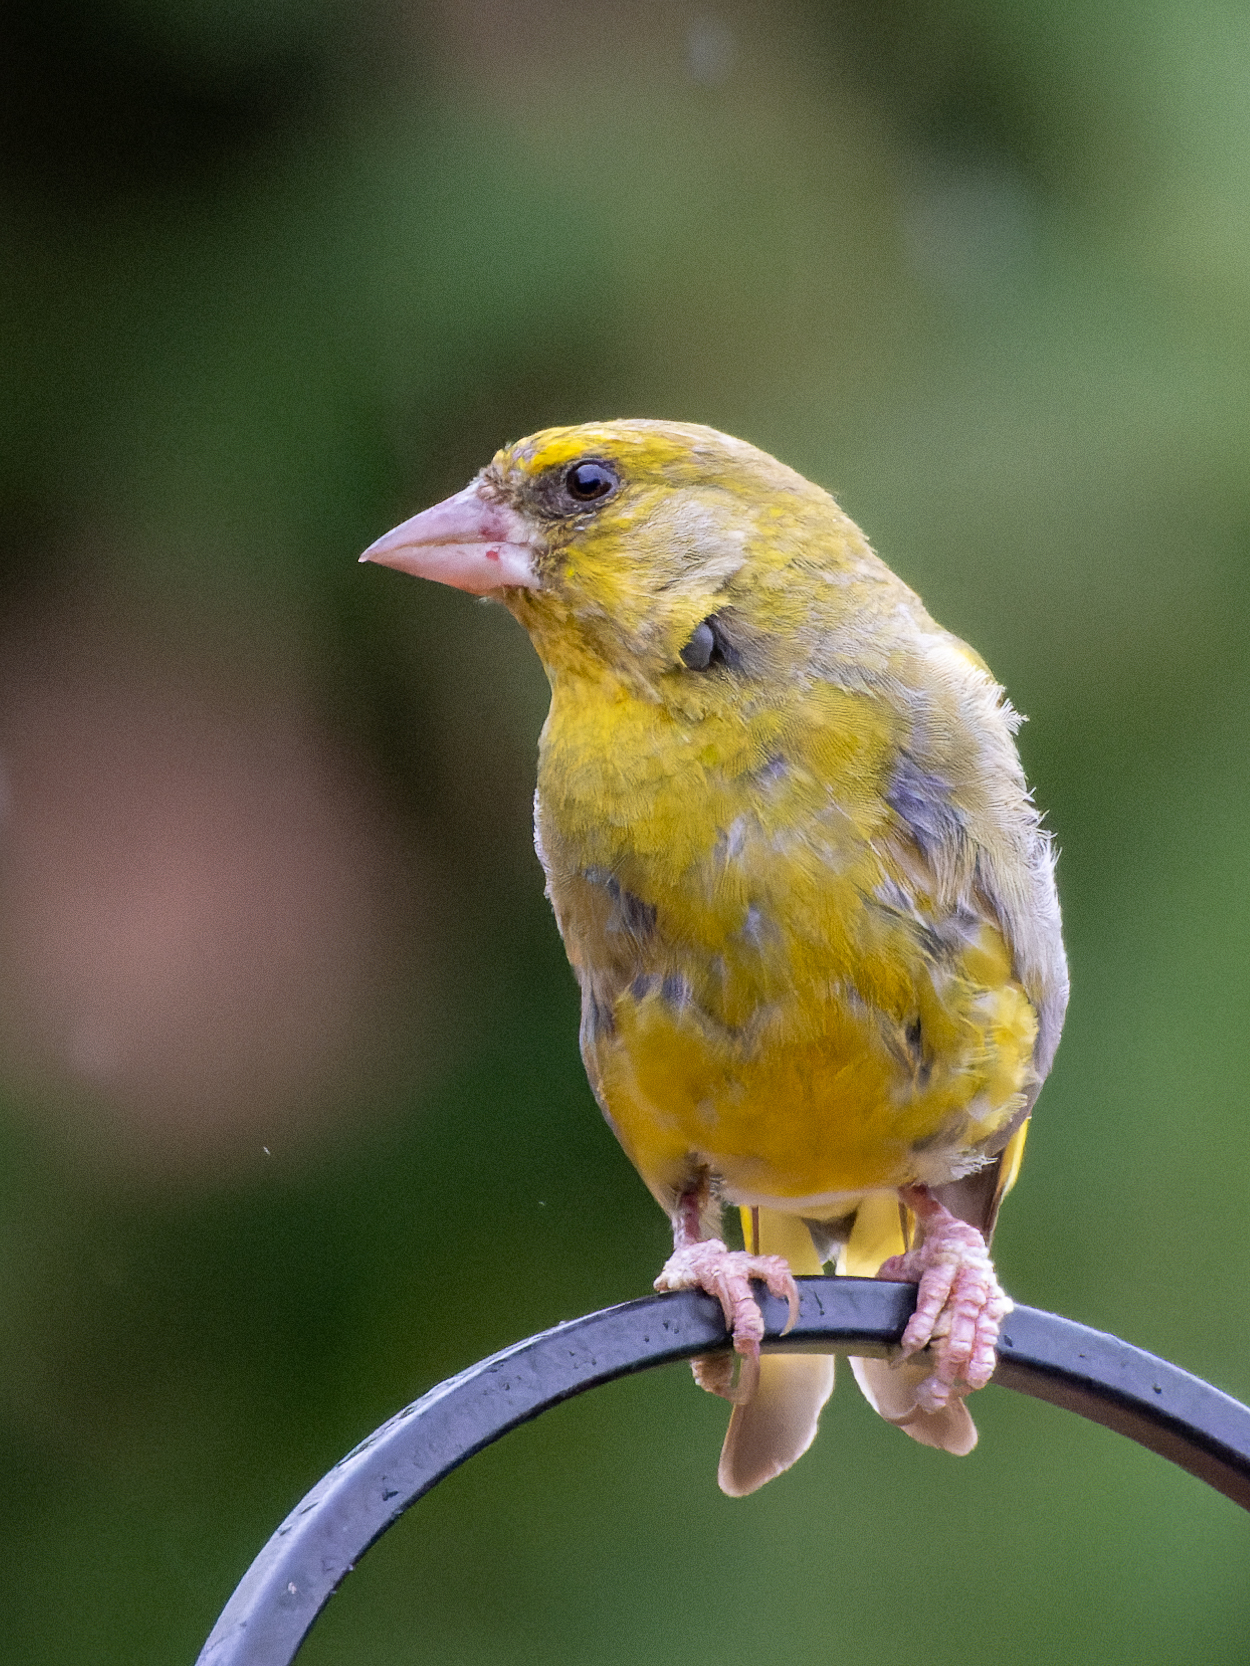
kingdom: Plantae
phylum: Tracheophyta
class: Liliopsida
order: Poales
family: Poaceae
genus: Chloris
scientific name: Chloris chloris
